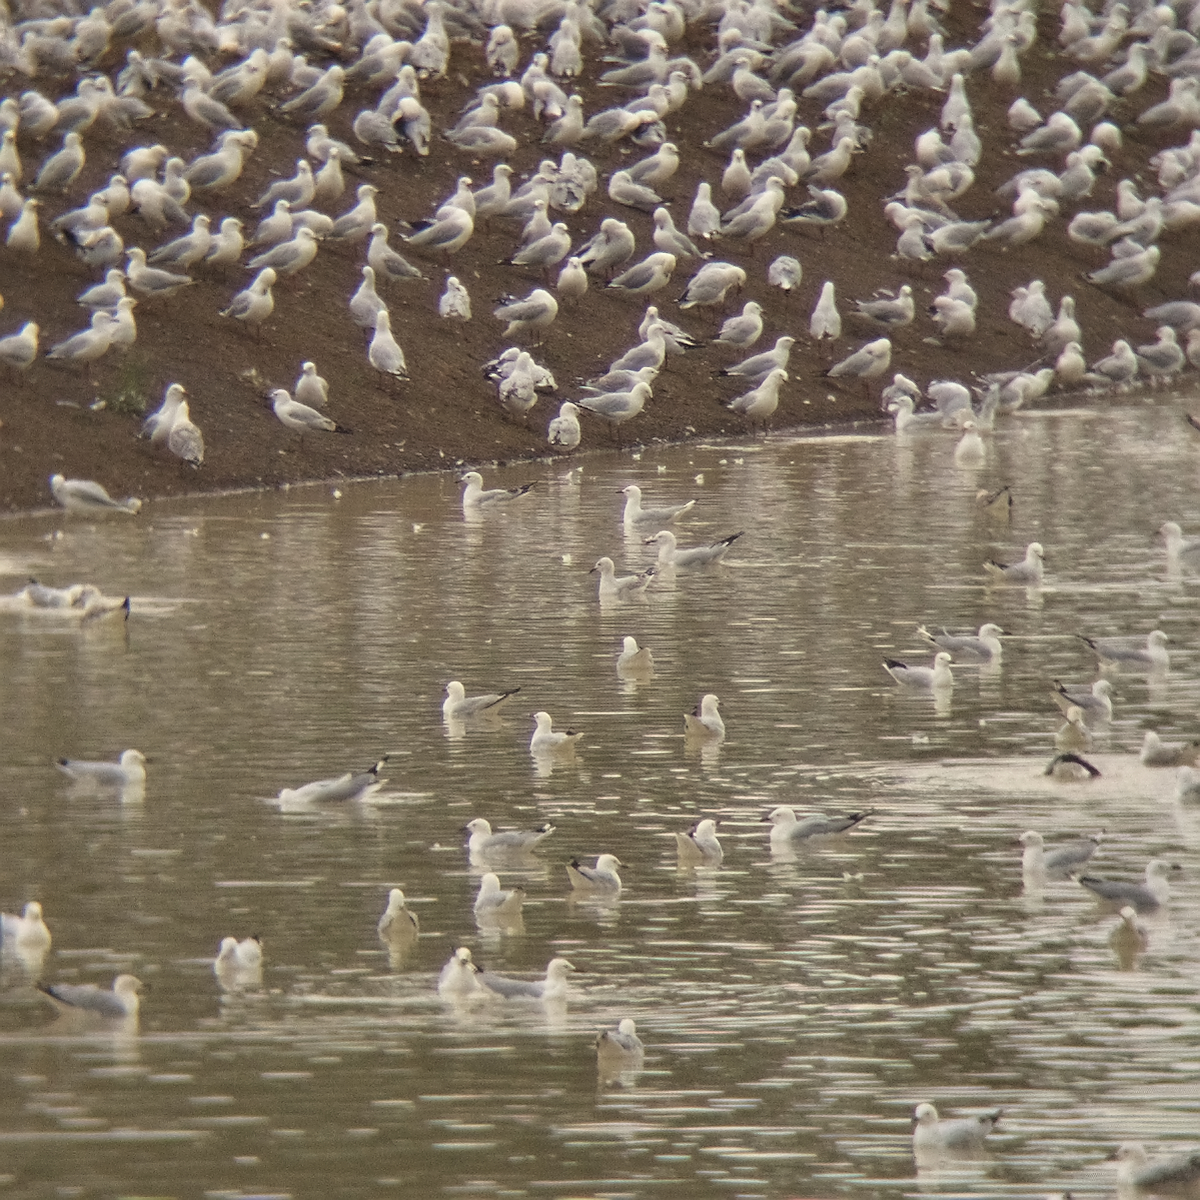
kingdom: Animalia
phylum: Chordata
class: Aves
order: Charadriiformes
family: Laridae
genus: Chroicocephalus
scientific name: Chroicocephalus novaehollandiae
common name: Silver gull
